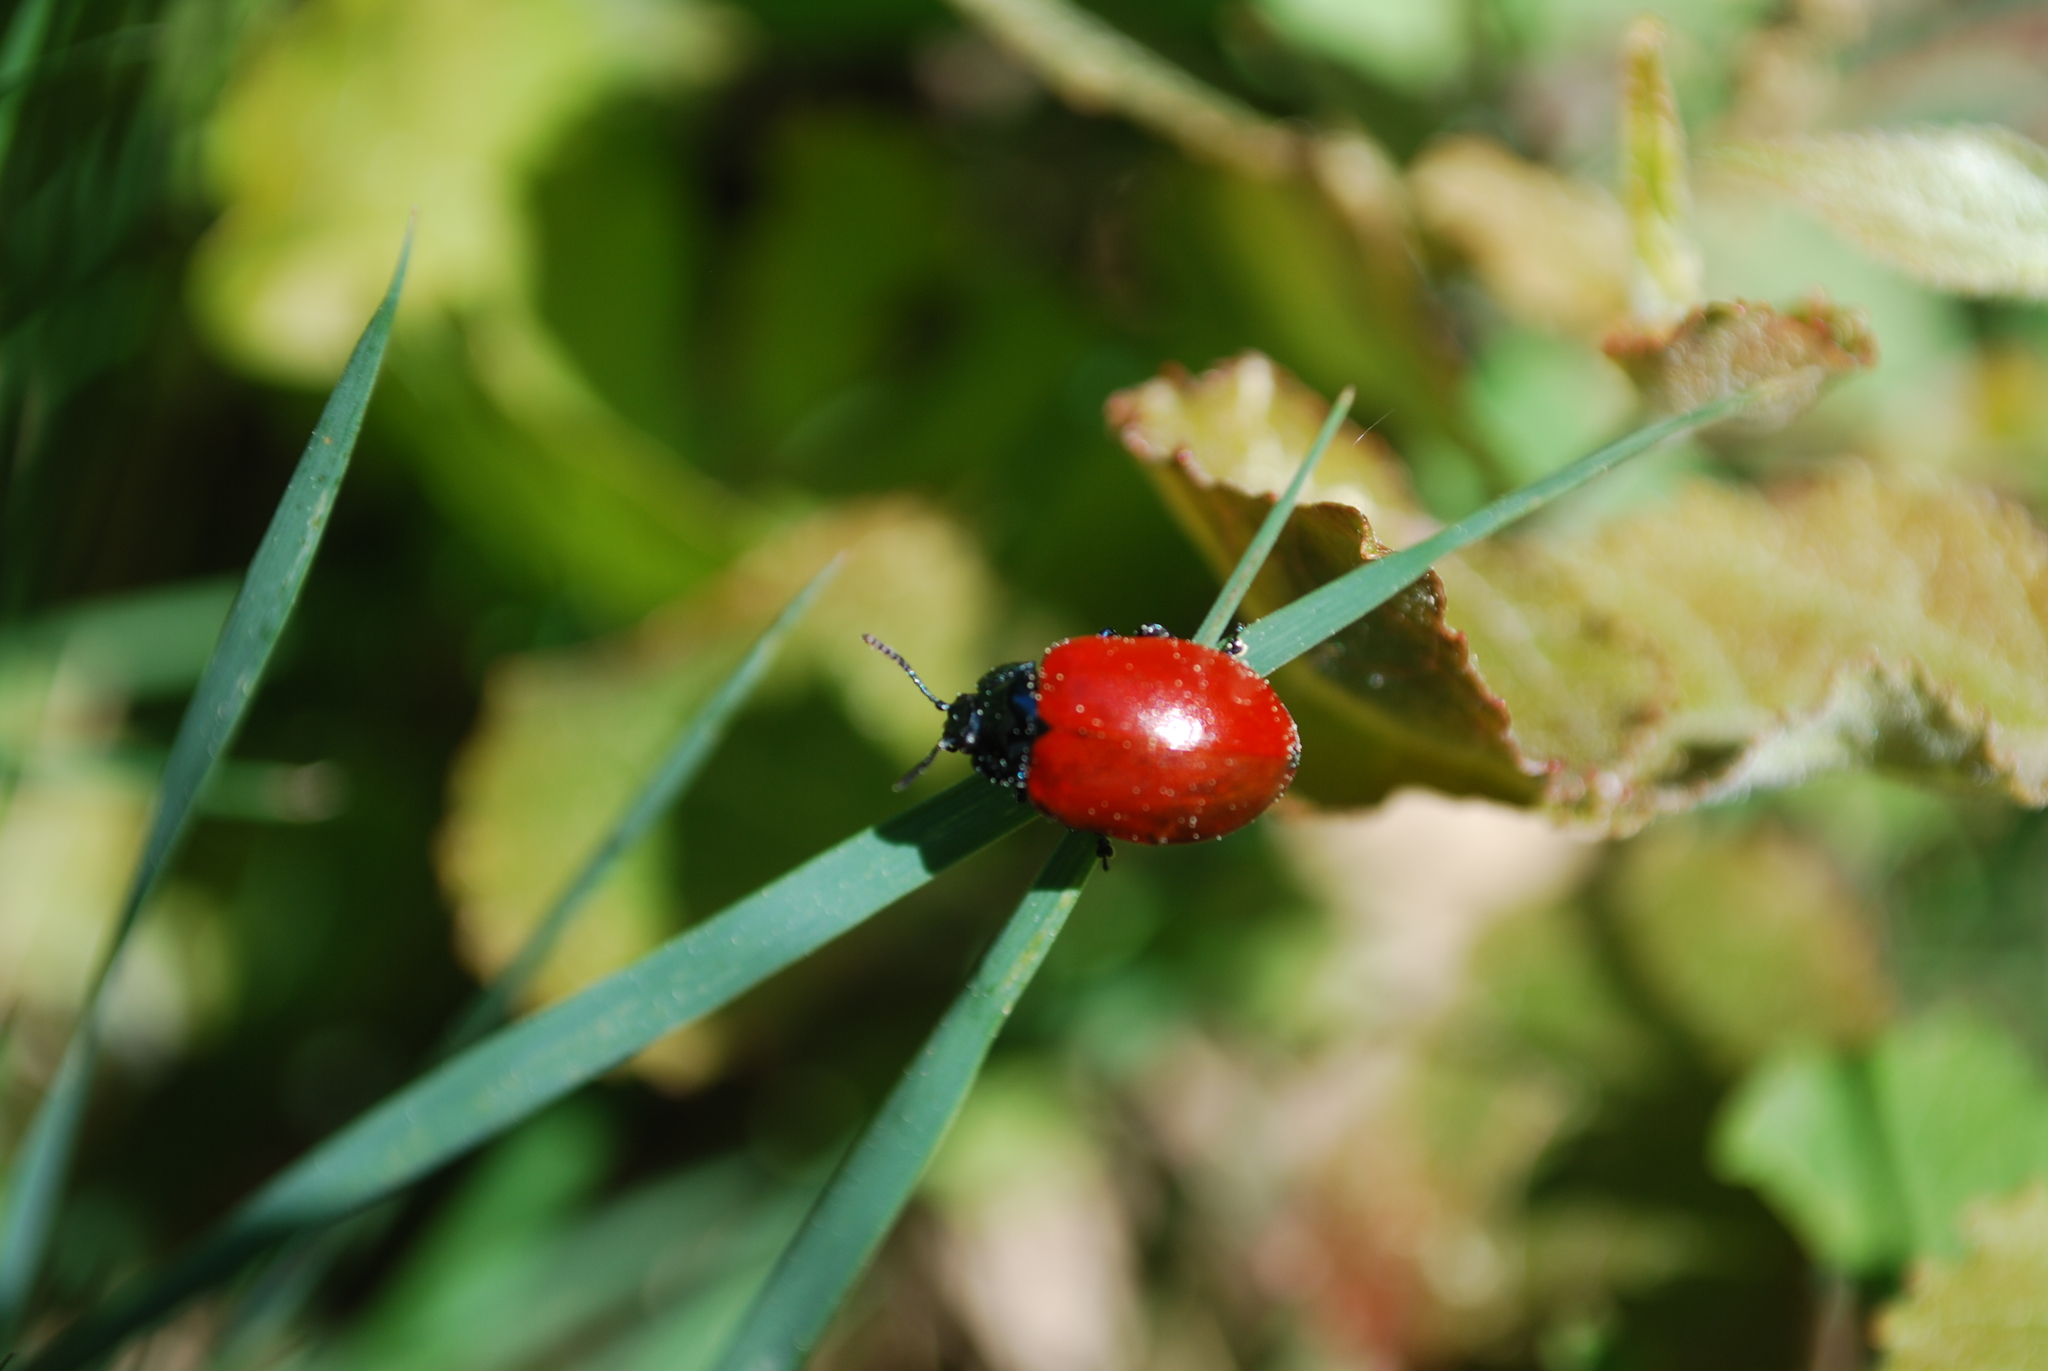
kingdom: Animalia
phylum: Arthropoda
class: Insecta
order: Coleoptera
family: Chrysomelidae
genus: Chrysomela
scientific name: Chrysomela populi
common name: Red poplar leaf beetle
